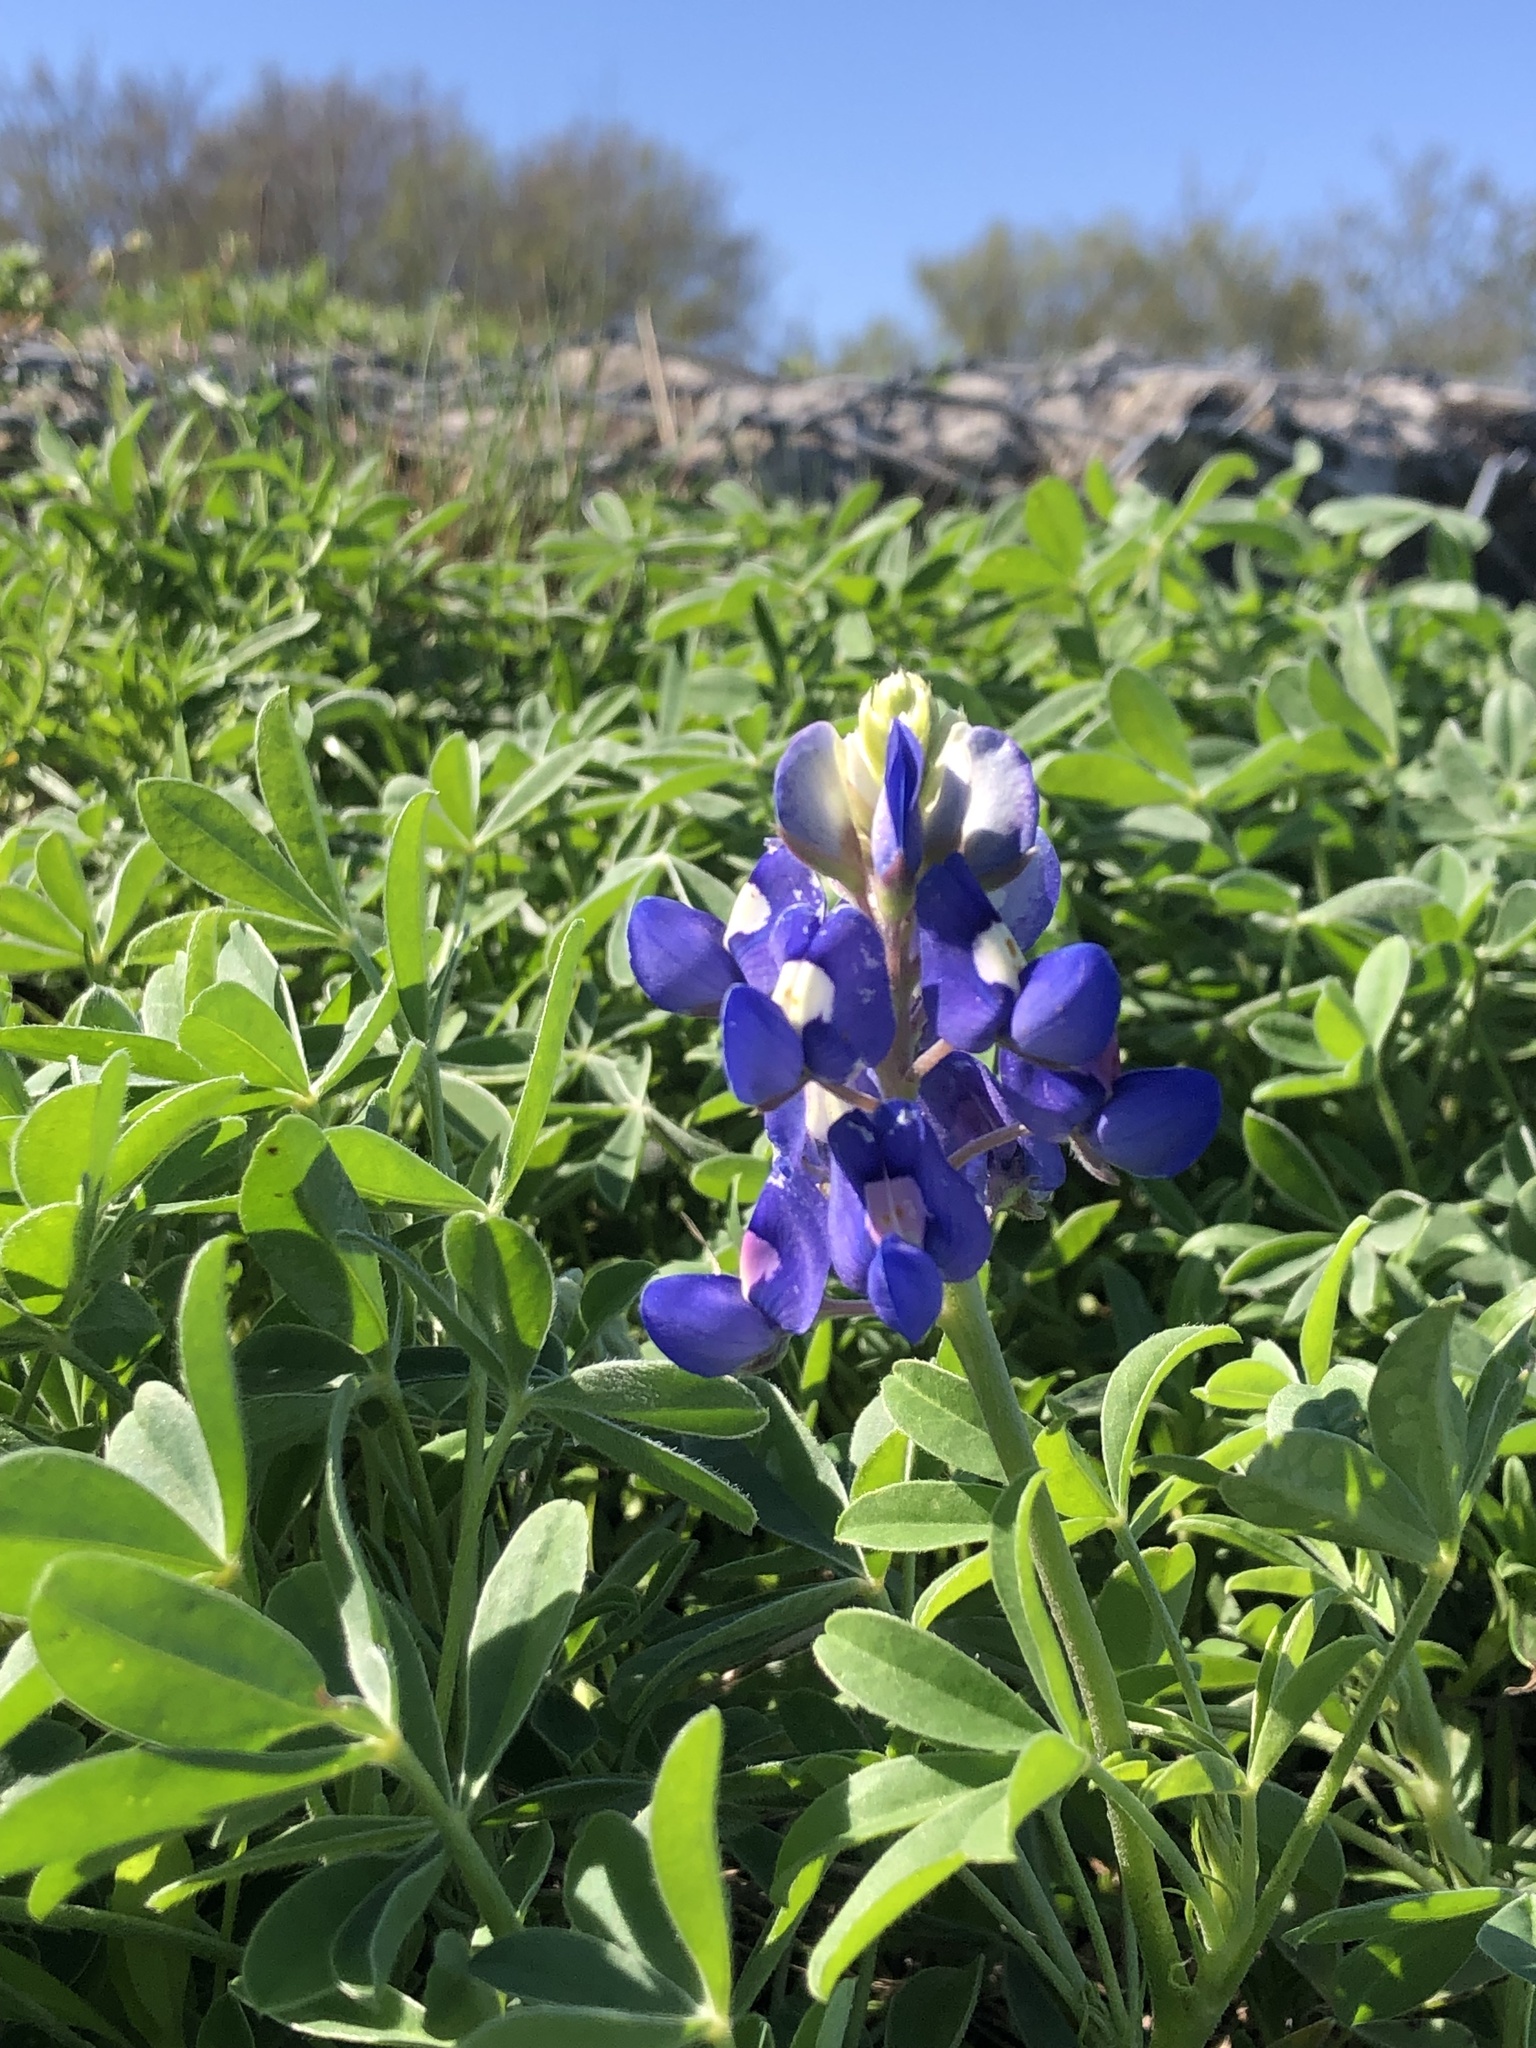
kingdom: Plantae
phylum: Tracheophyta
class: Magnoliopsida
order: Fabales
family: Fabaceae
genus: Lupinus
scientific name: Lupinus texensis
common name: Texas bluebonnet
